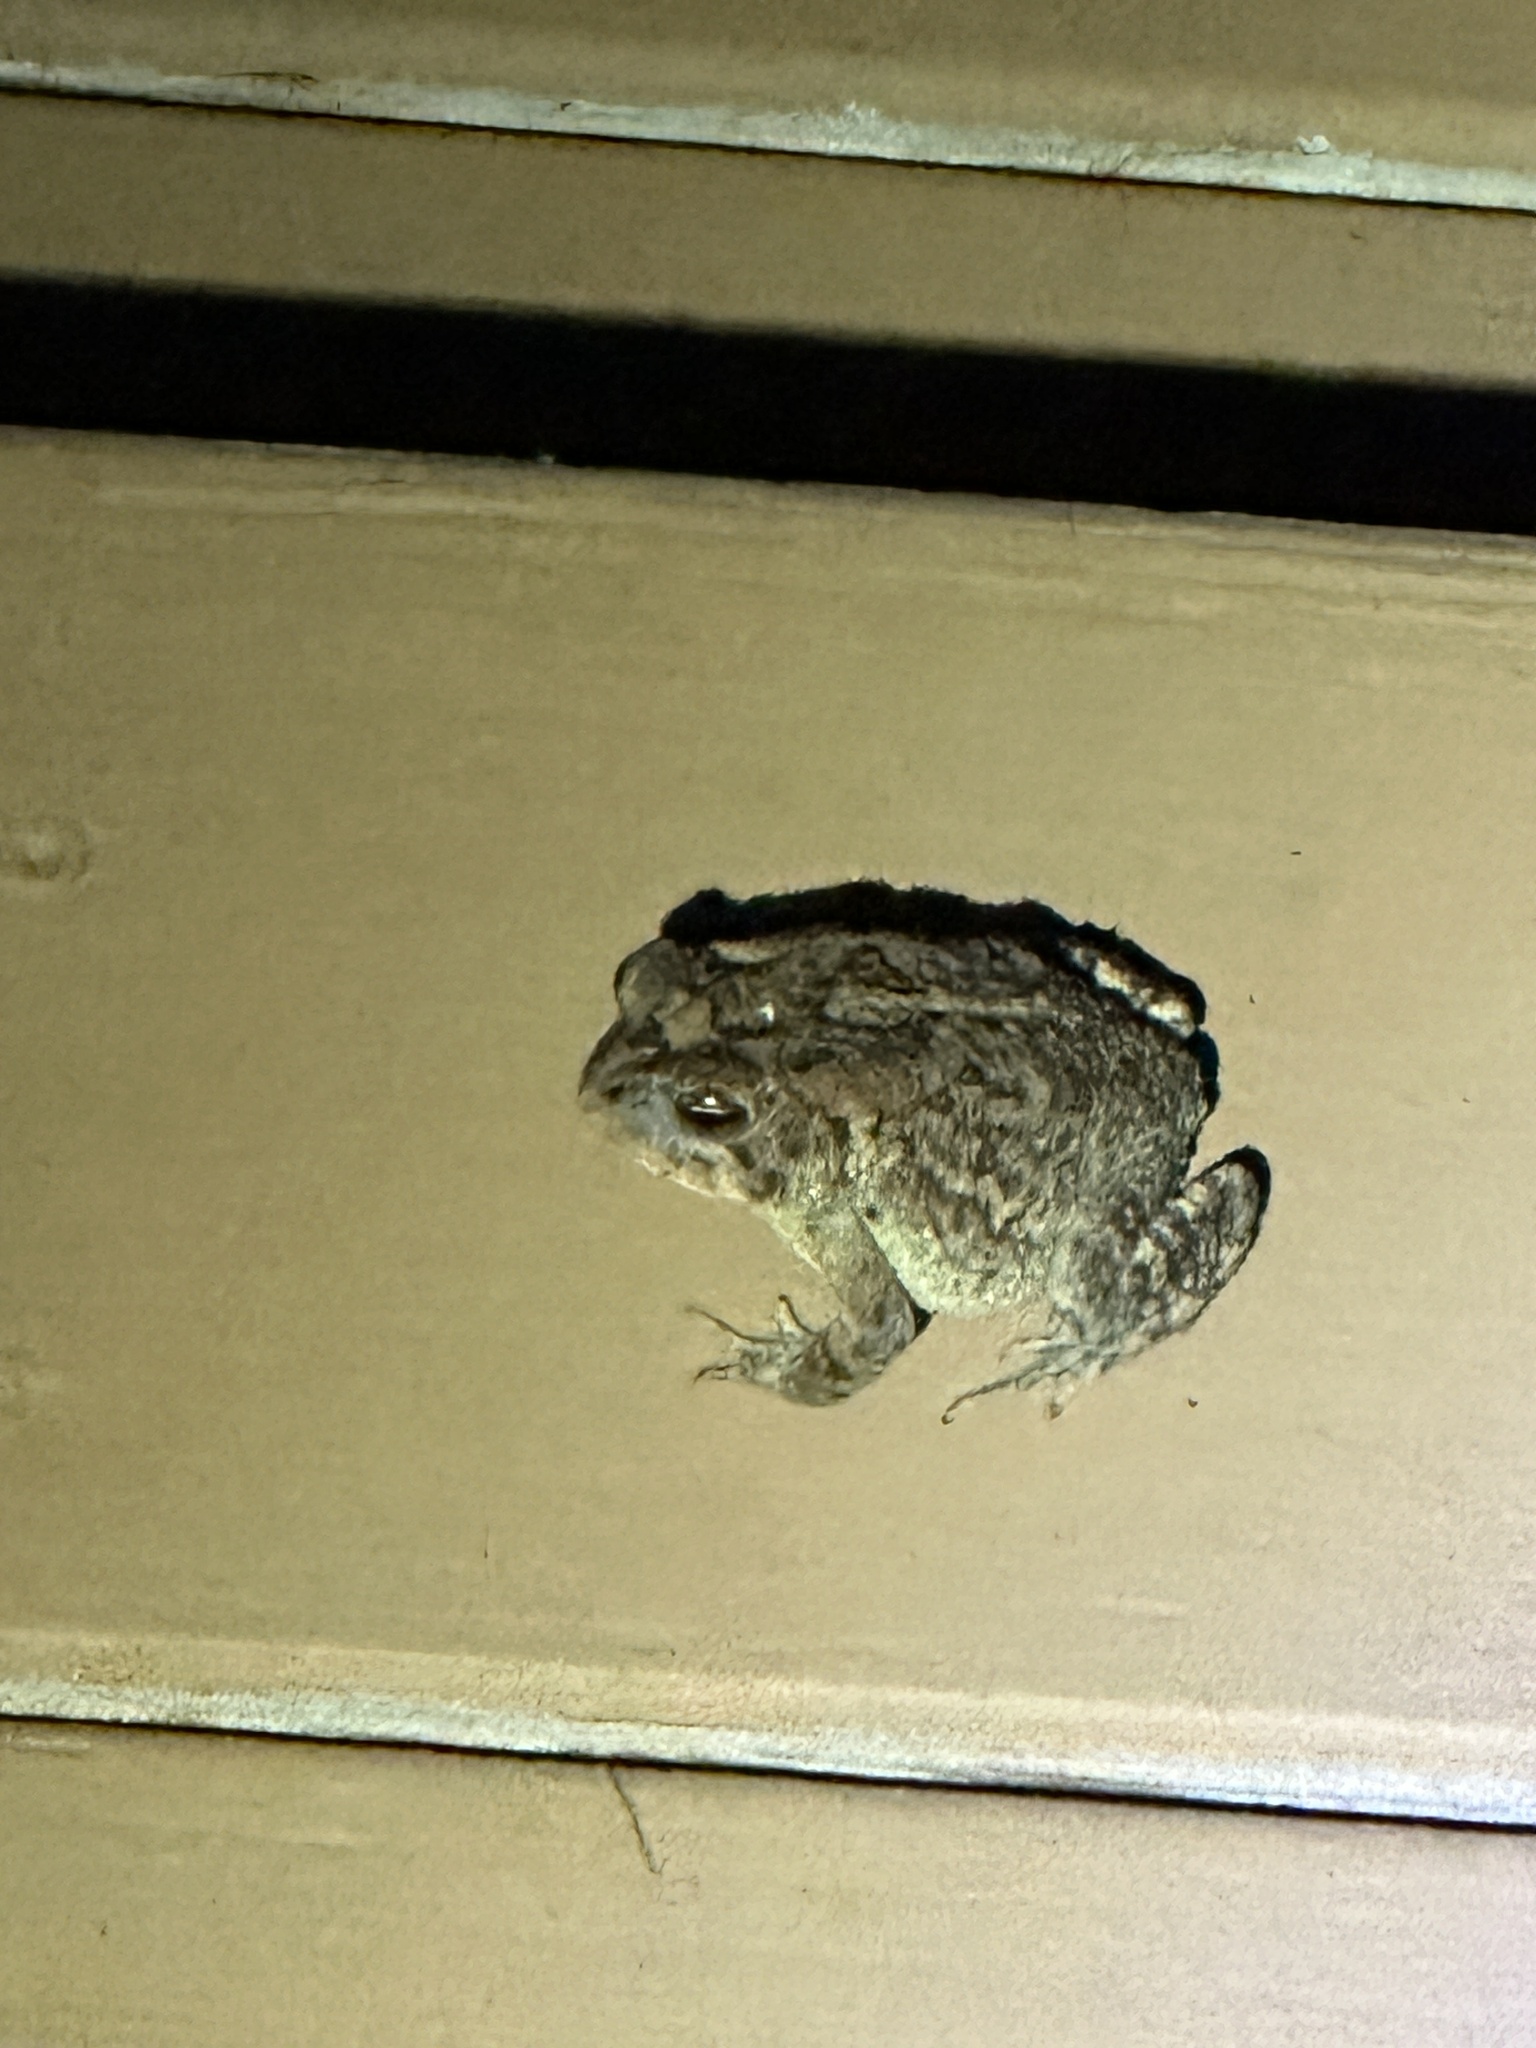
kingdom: Animalia
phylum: Chordata
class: Amphibia
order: Anura
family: Bufonidae
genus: Anaxyrus
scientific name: Anaxyrus terrestris
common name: Southern toad
